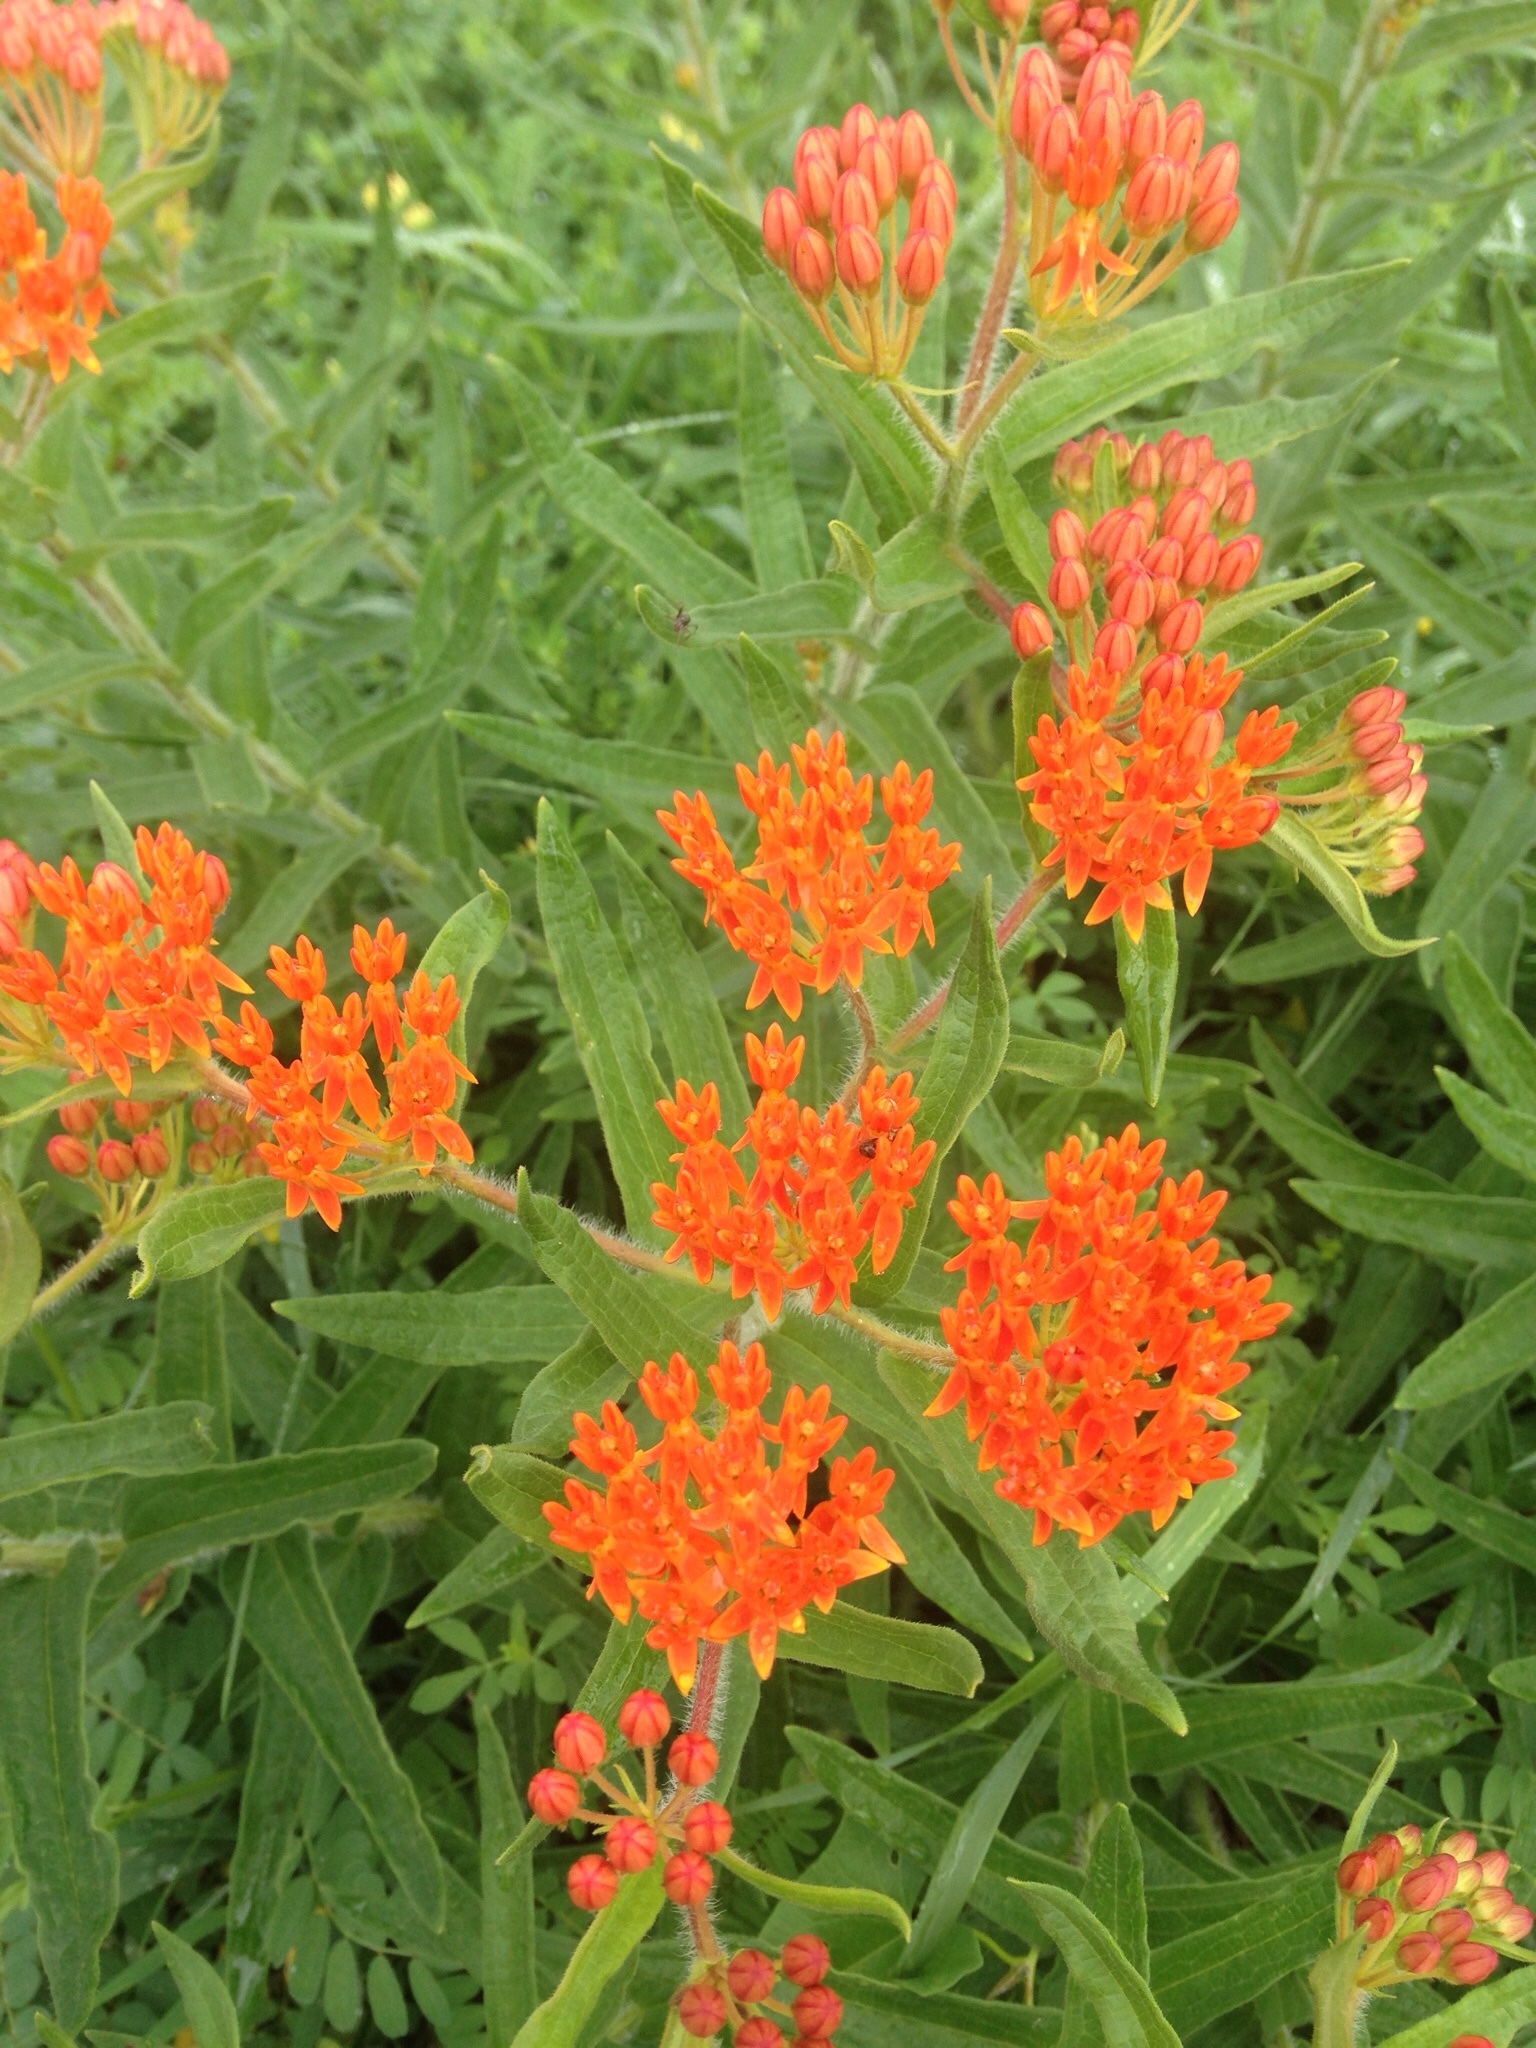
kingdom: Plantae
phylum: Tracheophyta
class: Magnoliopsida
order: Gentianales
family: Apocynaceae
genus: Asclepias
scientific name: Asclepias tuberosa
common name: Butterfly milkweed
